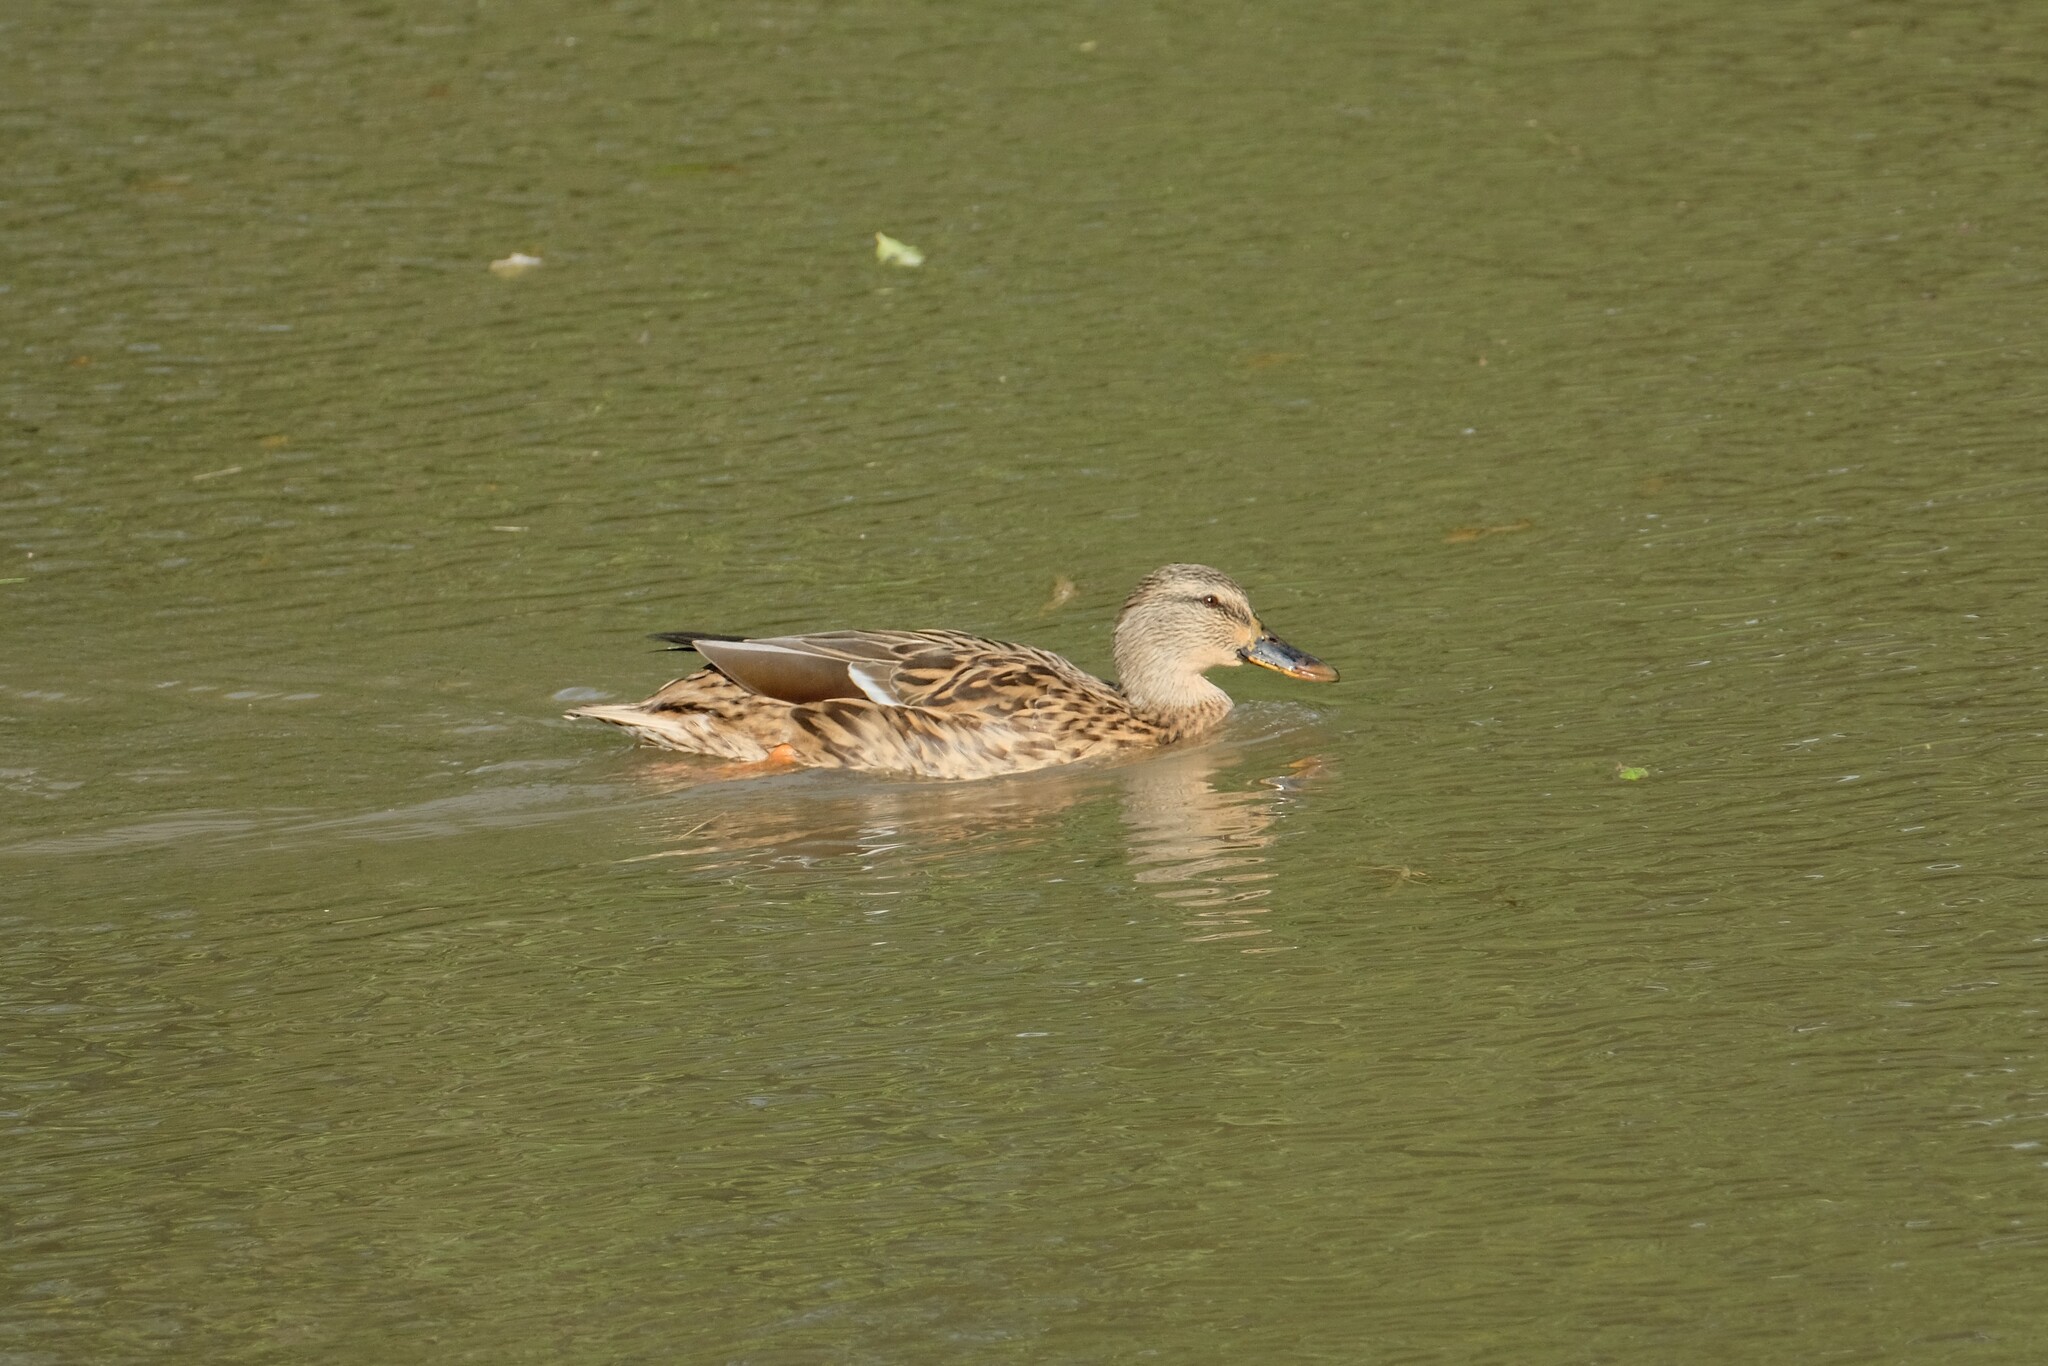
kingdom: Animalia
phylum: Chordata
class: Aves
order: Anseriformes
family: Anatidae
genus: Anas
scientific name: Anas platyrhynchos
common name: Mallard
